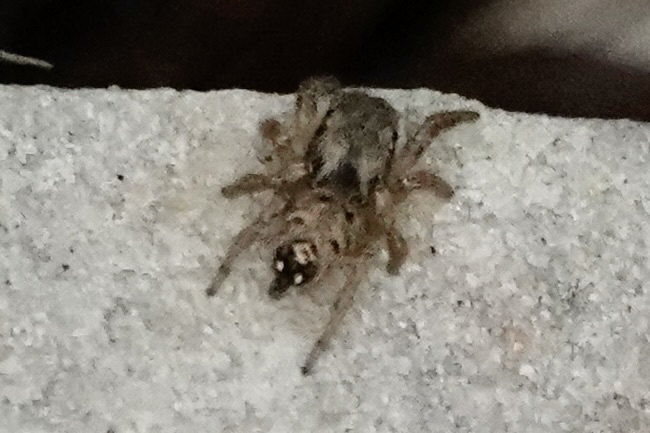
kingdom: Animalia
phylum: Arthropoda
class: Arachnida
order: Araneae
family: Salticidae
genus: Habronattus
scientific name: Habronattus coecatus
